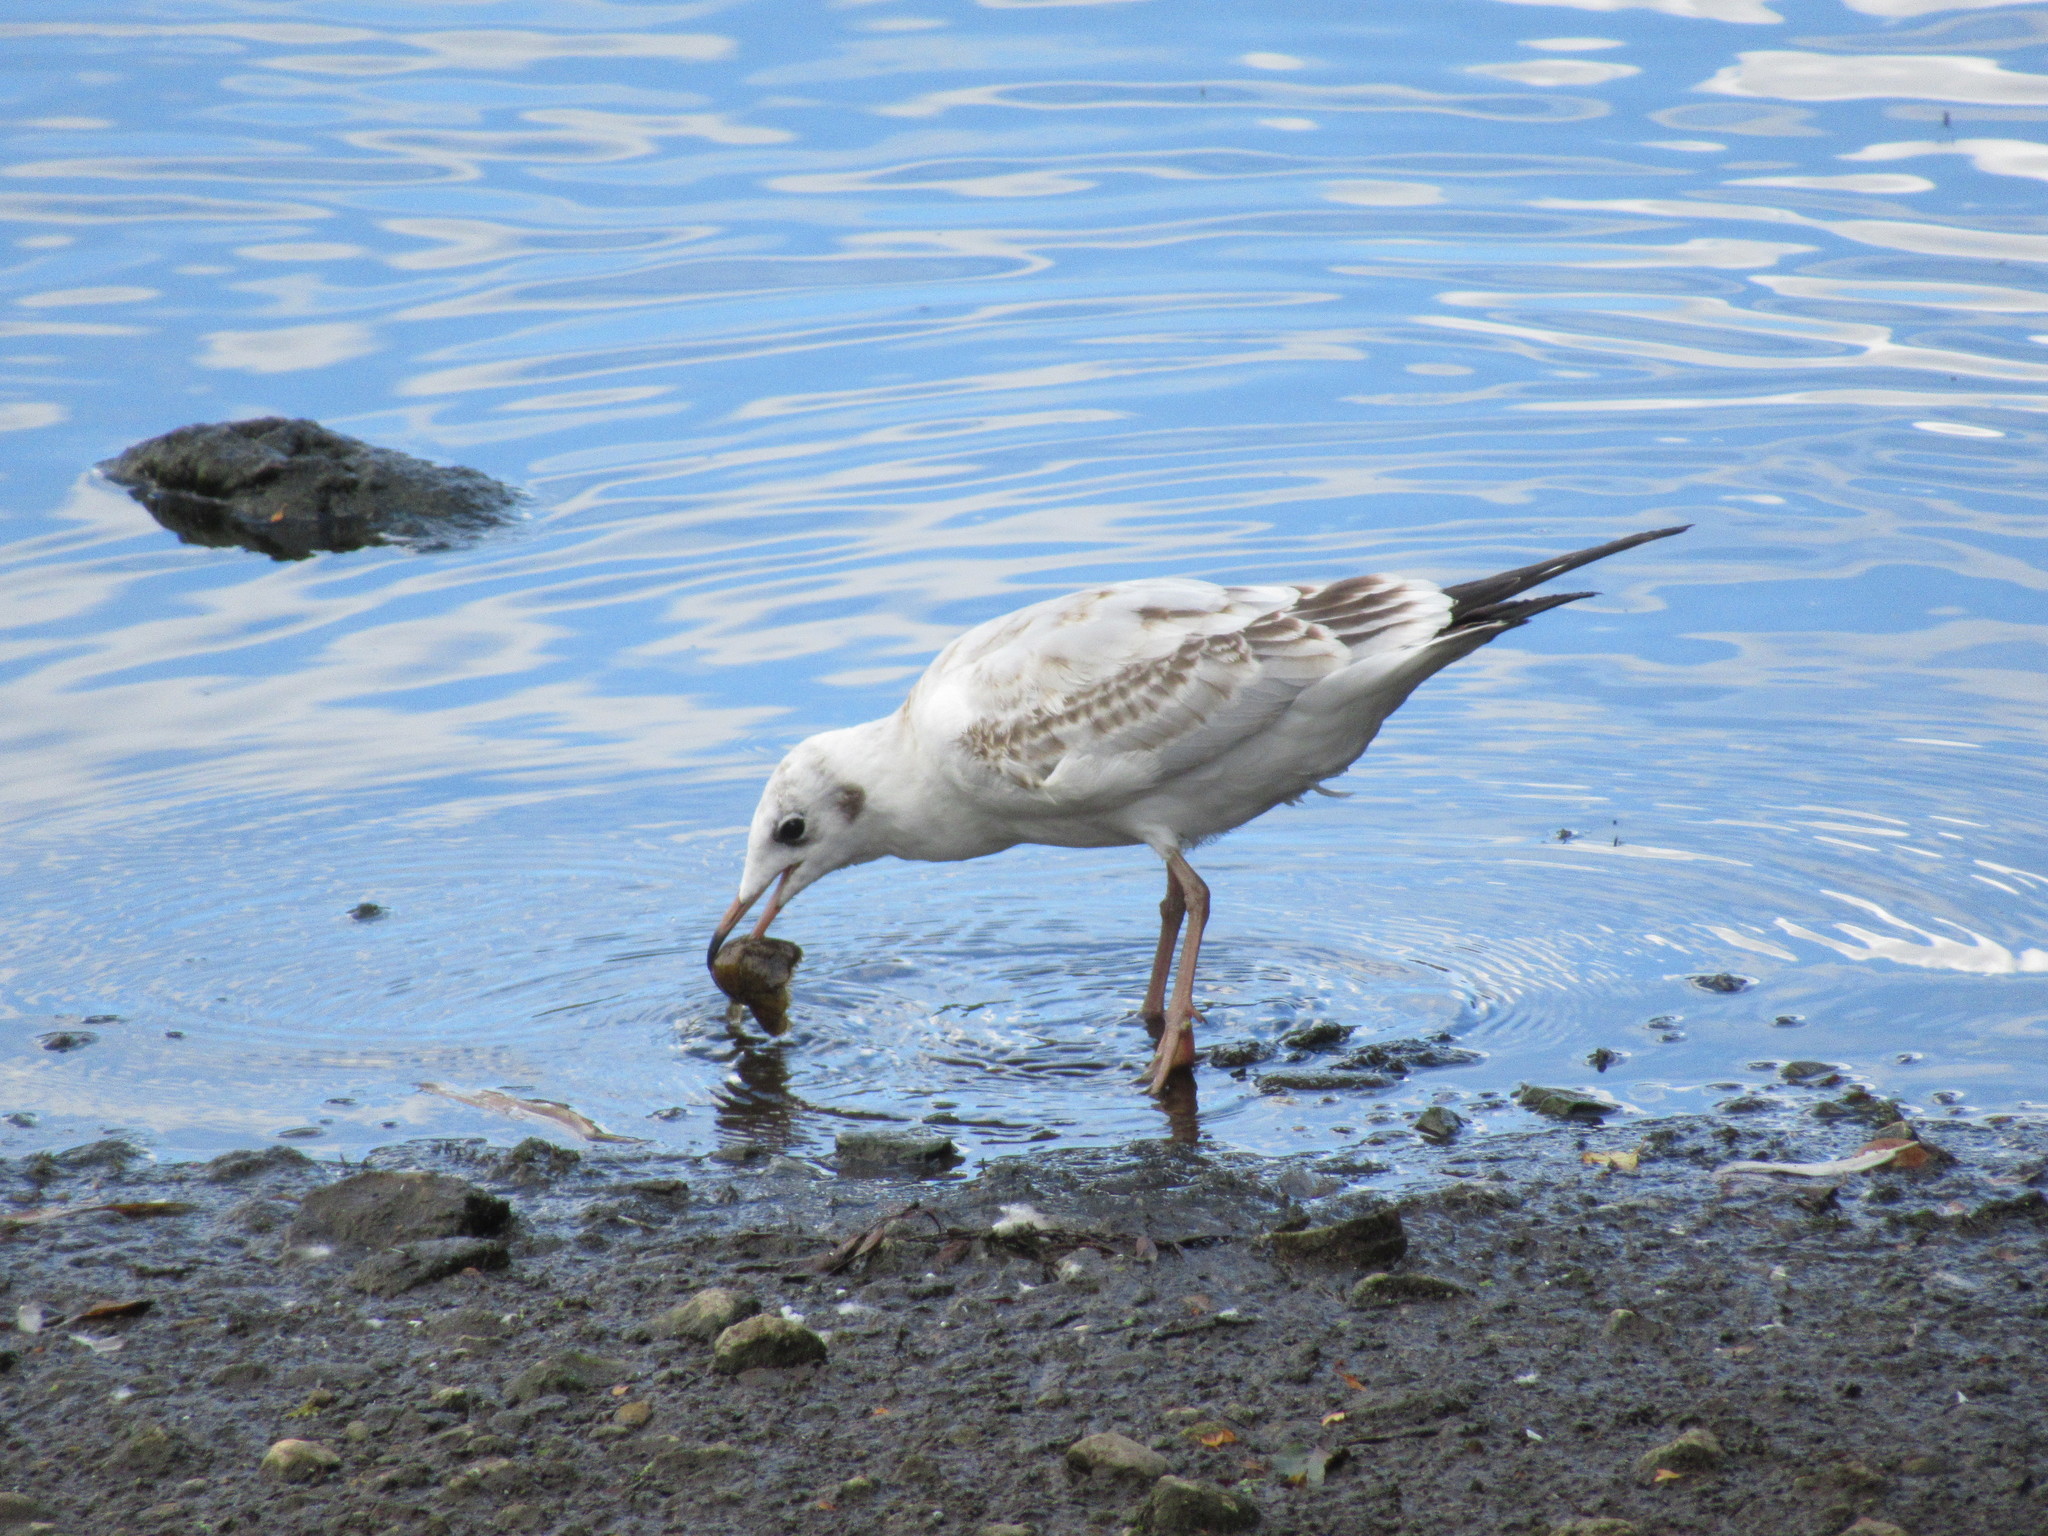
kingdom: Animalia
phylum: Chordata
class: Aves
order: Charadriiformes
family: Laridae
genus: Chroicocephalus
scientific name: Chroicocephalus ridibundus
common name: Black-headed gull
